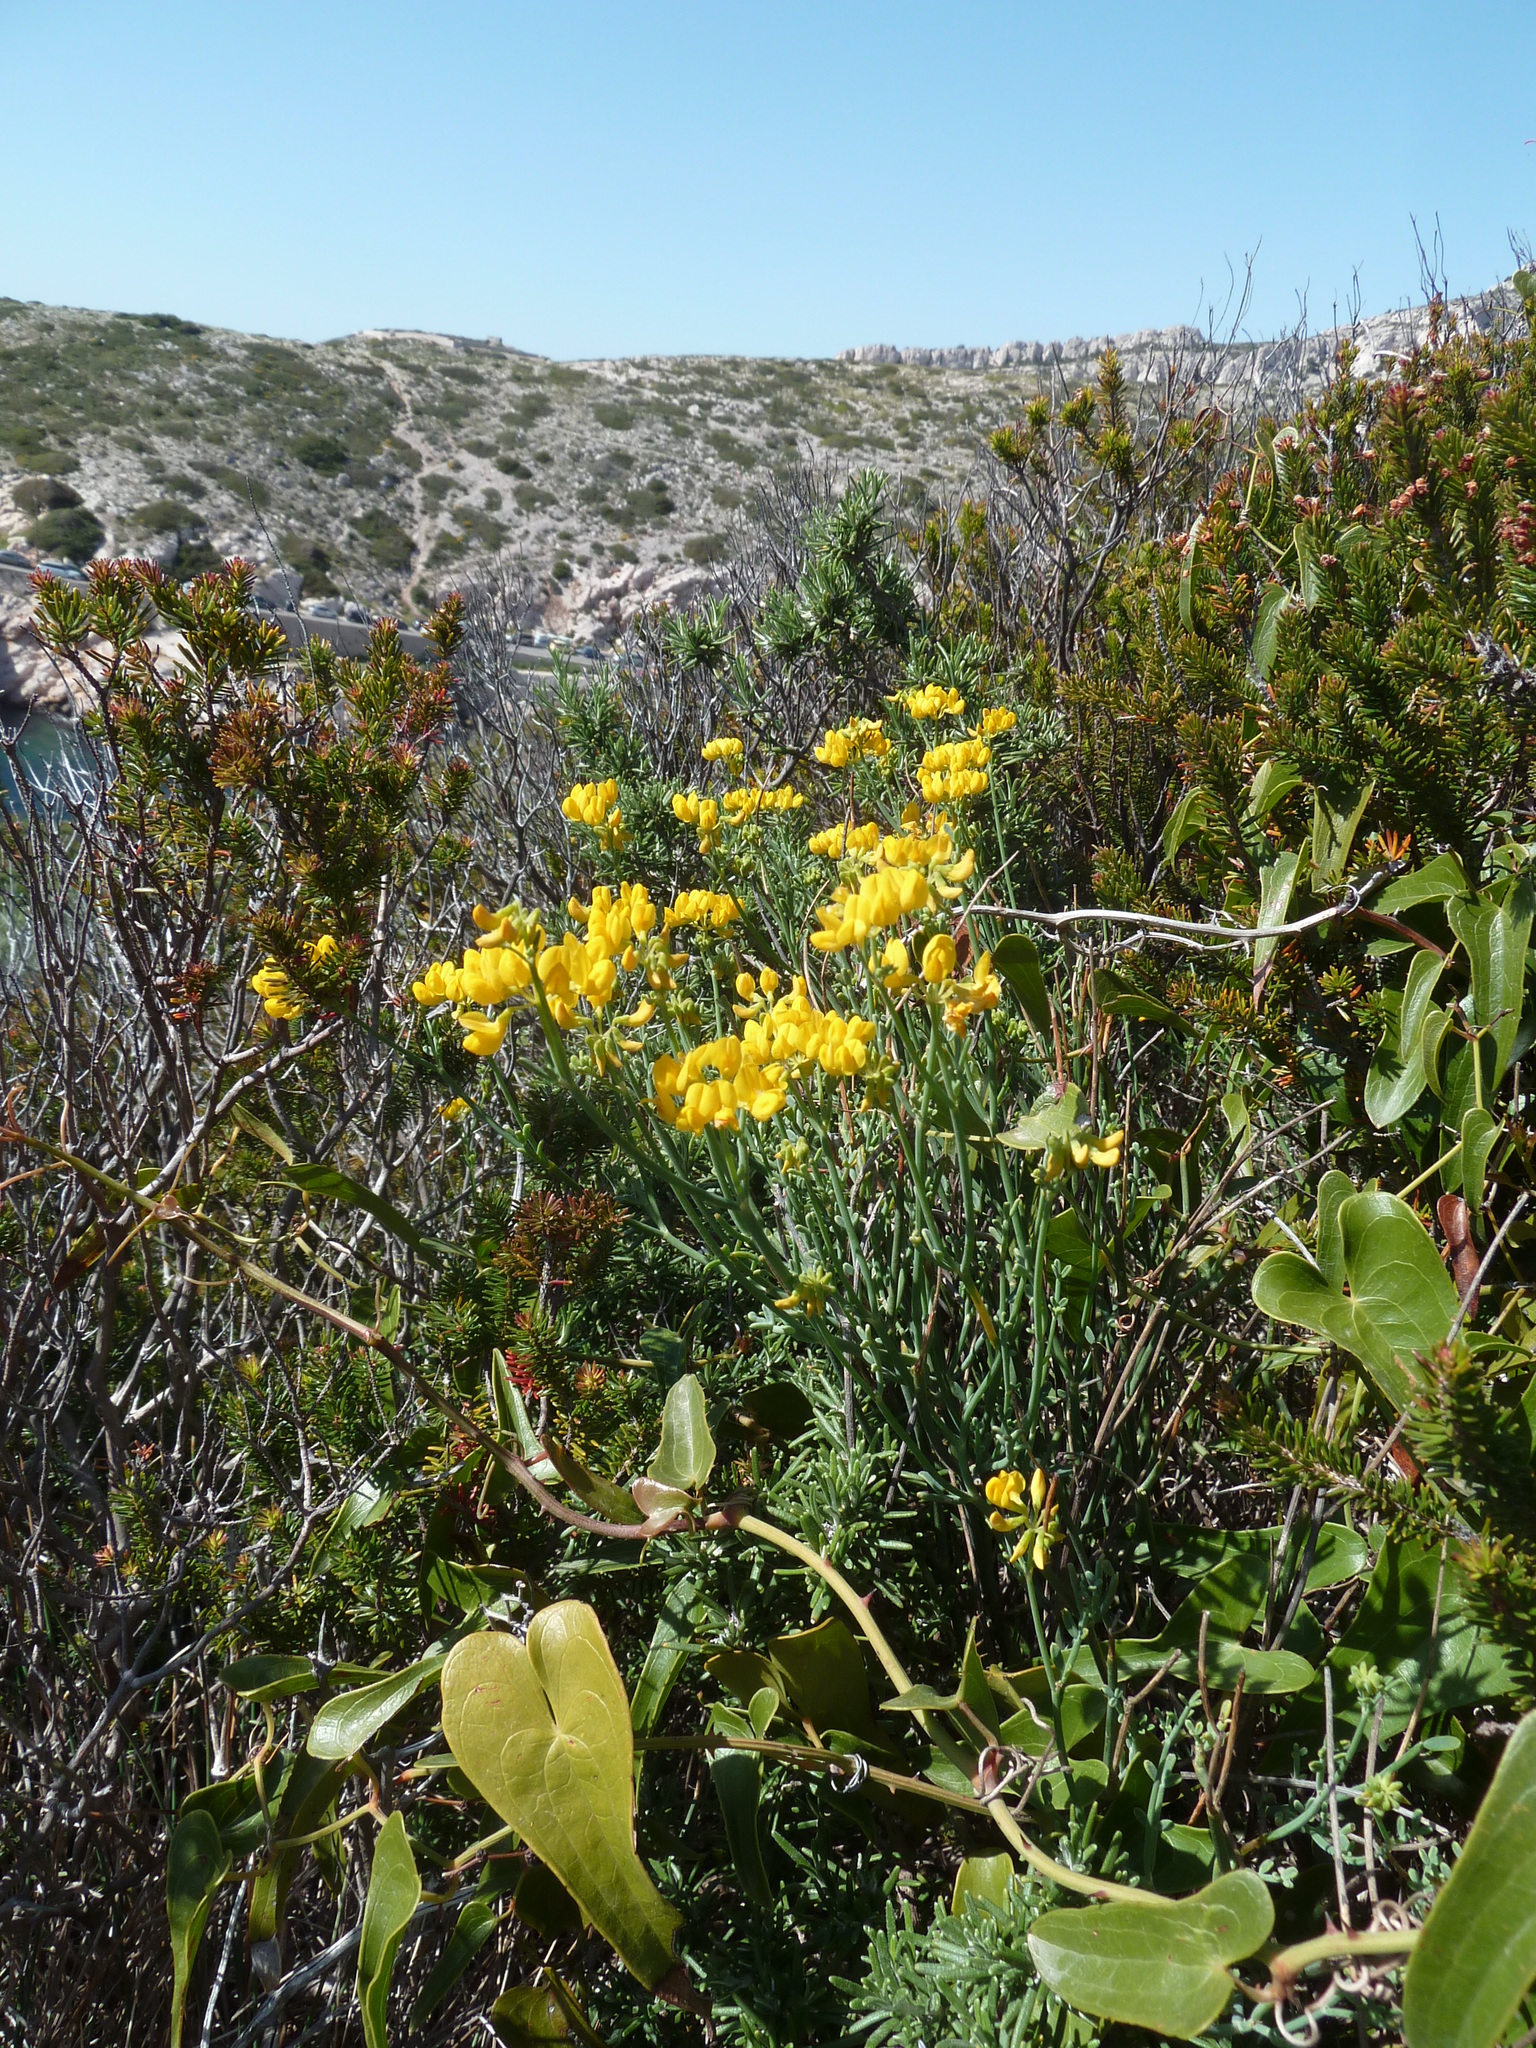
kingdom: Plantae
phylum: Tracheophyta
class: Magnoliopsida
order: Fabales
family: Fabaceae
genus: Coronilla
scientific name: Coronilla juncea
